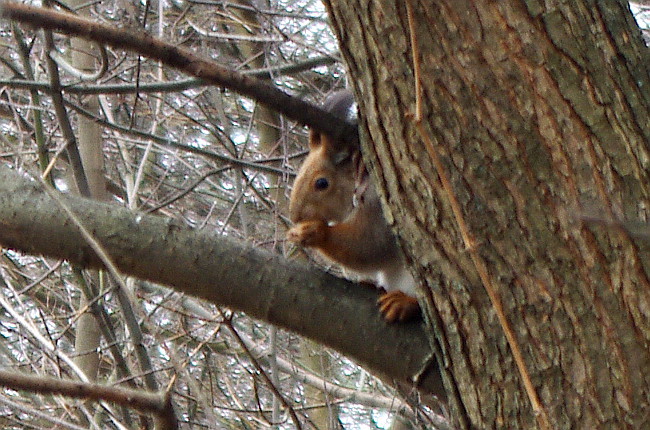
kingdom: Animalia
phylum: Chordata
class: Mammalia
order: Rodentia
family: Sciuridae
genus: Sciurus
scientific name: Sciurus vulgaris
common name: Eurasian red squirrel
